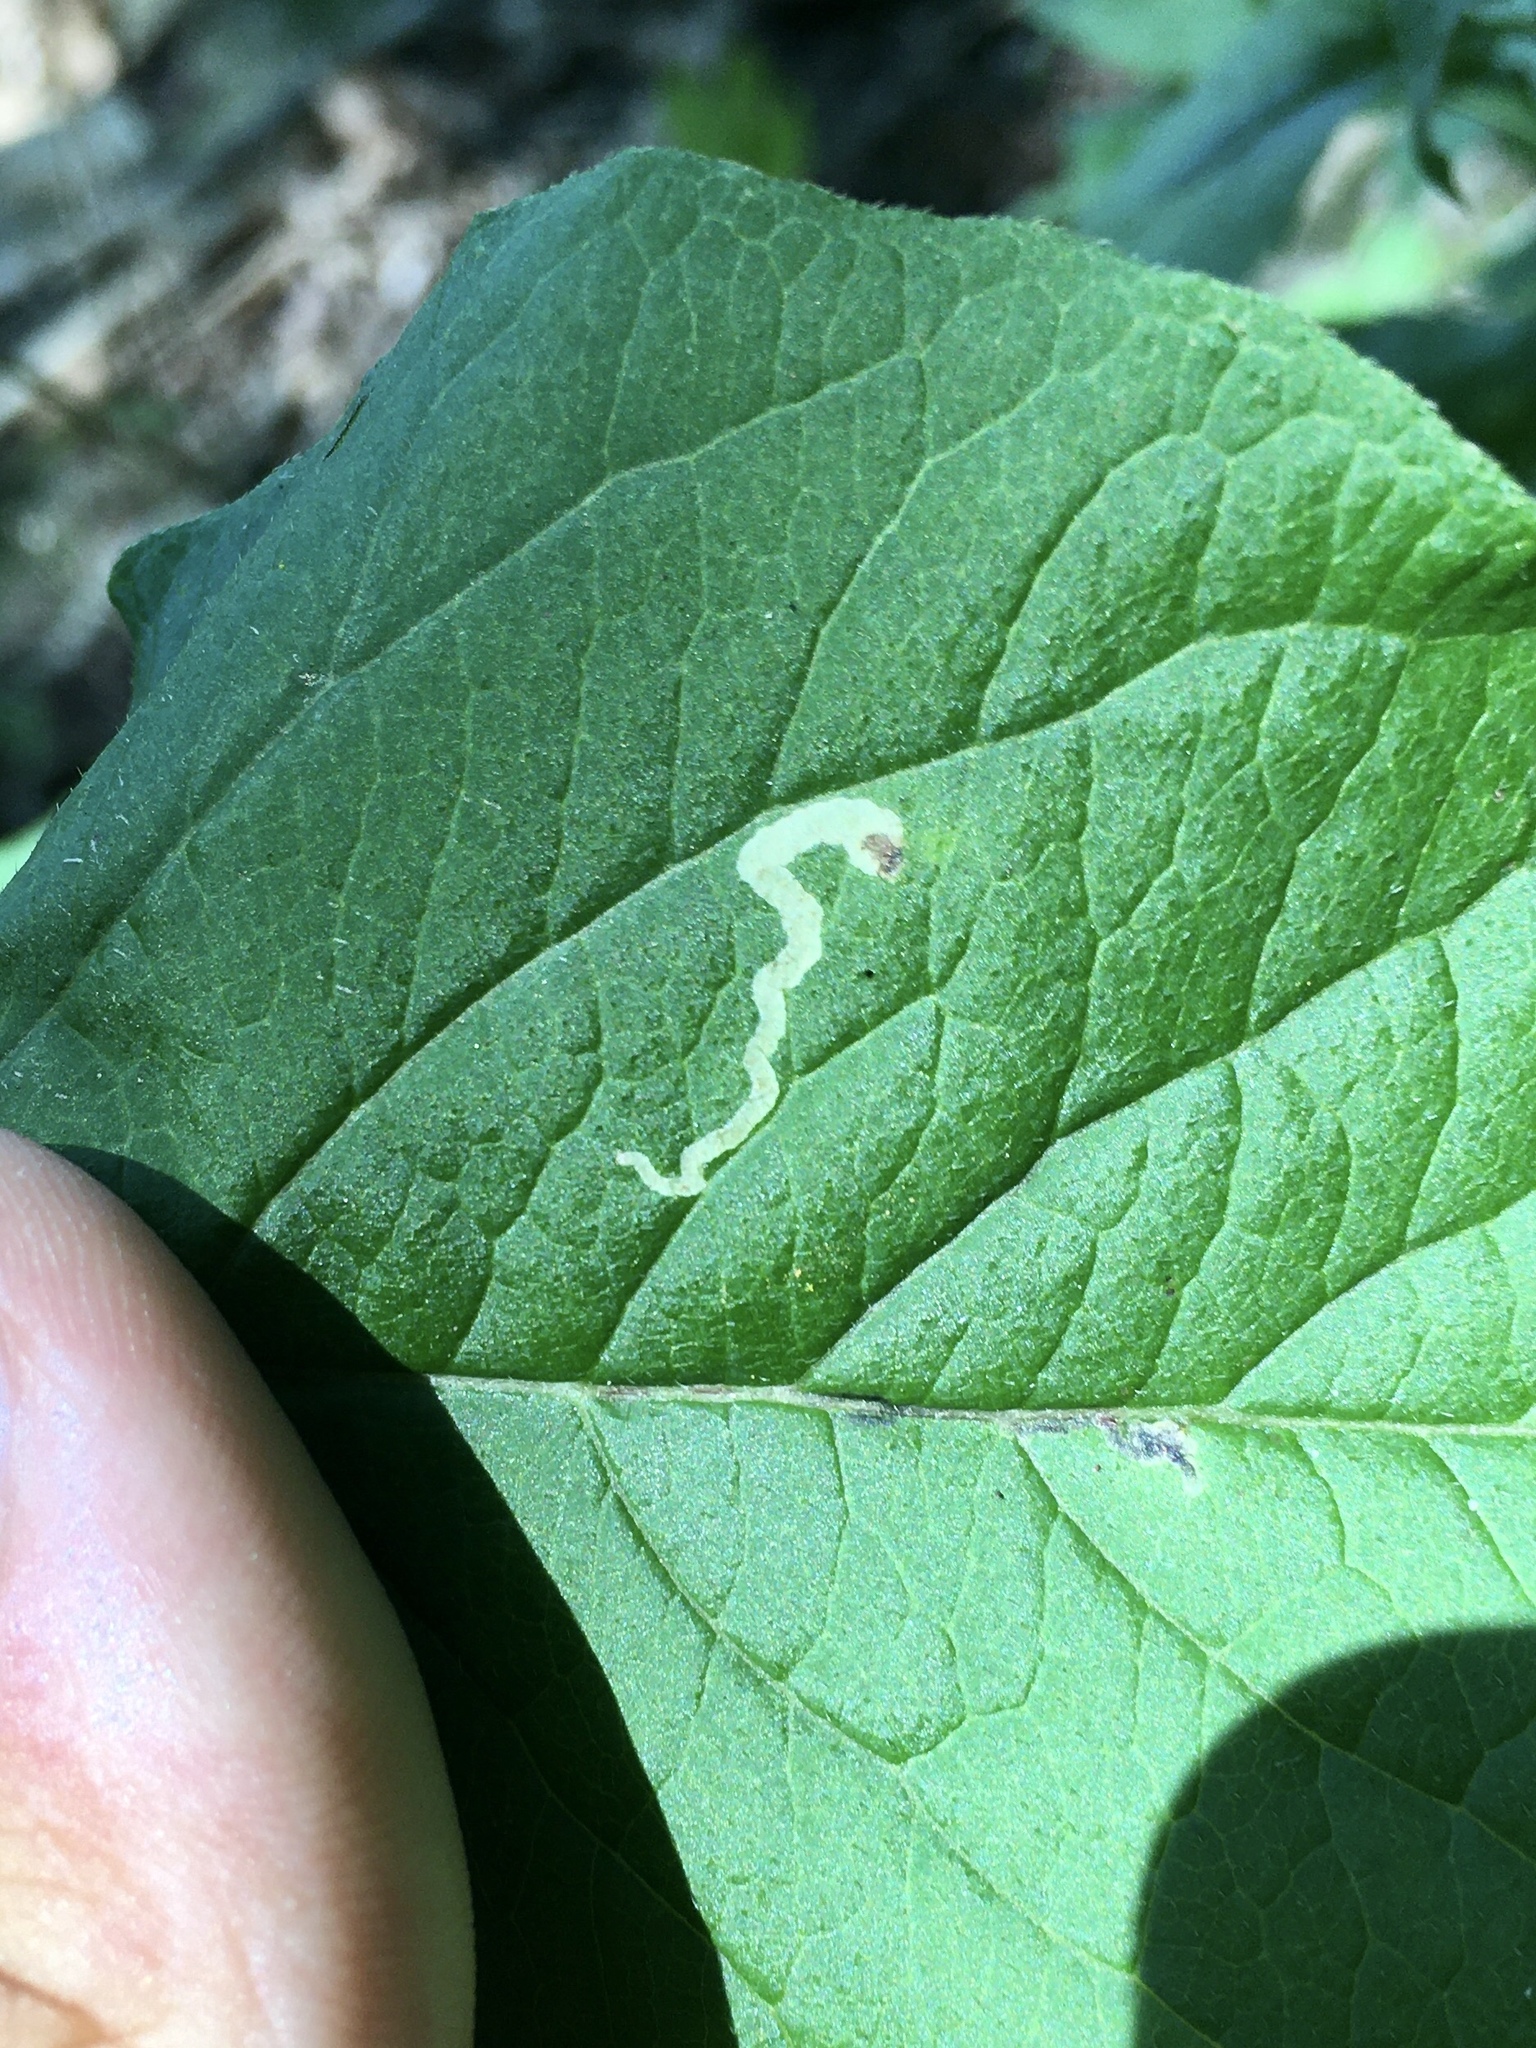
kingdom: Animalia
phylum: Arthropoda
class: Insecta
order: Diptera
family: Agromyzidae
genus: Aulagromyza
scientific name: Aulagromyza orbitalis
